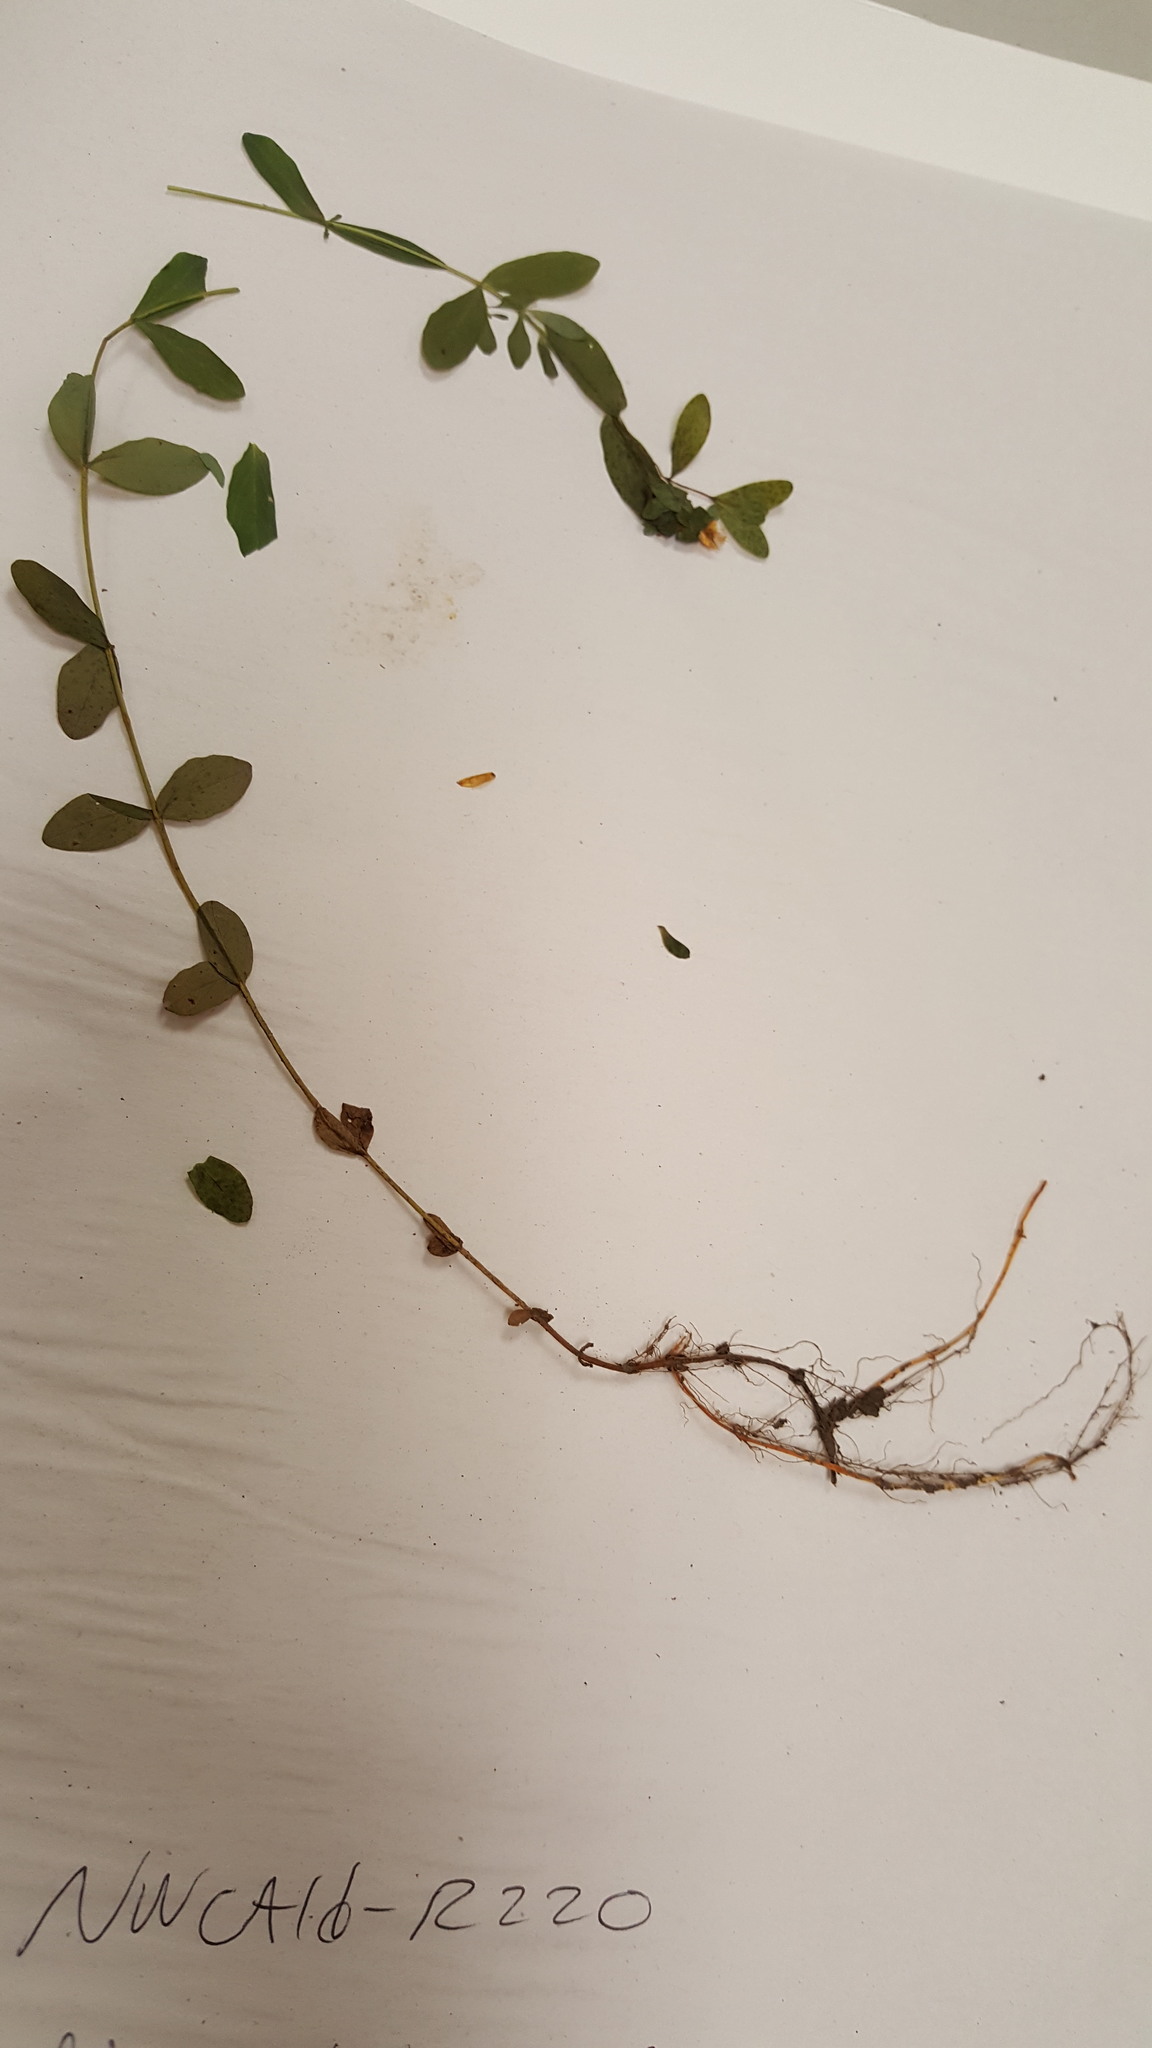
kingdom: Plantae
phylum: Tracheophyta
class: Magnoliopsida
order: Malpighiales
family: Hypericaceae
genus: Hypericum
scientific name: Hypericum ellipticum
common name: Elliptic st. john's-wort
